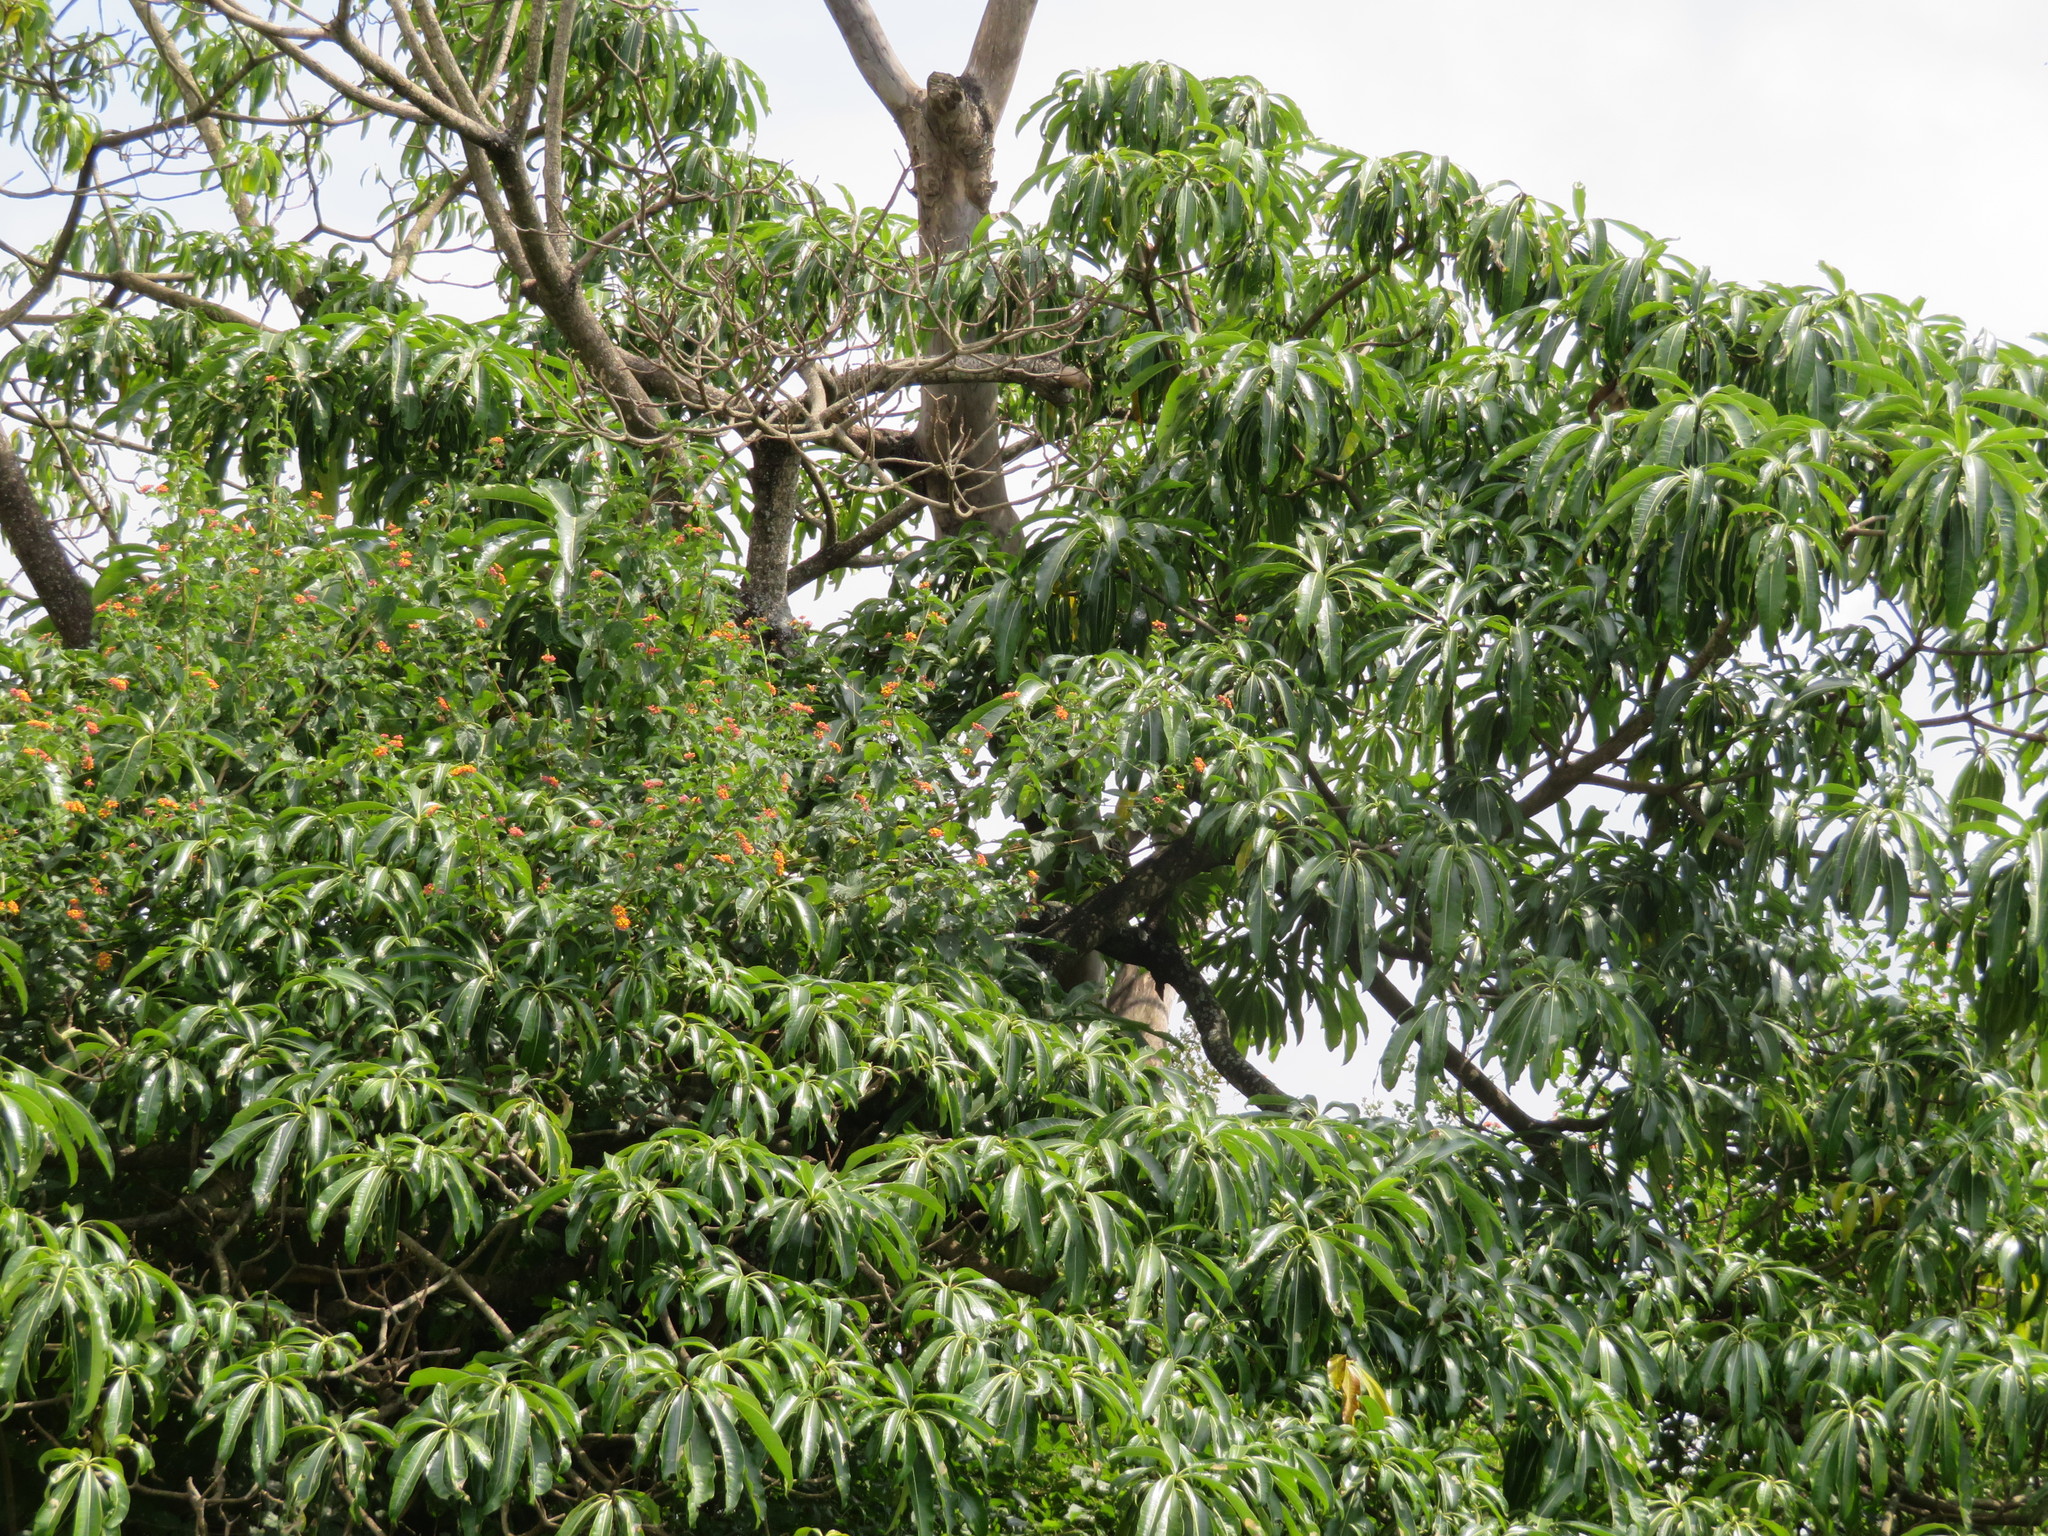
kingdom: Plantae
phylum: Tracheophyta
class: Magnoliopsida
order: Gentianales
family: Apocynaceae
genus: Rauvolfia
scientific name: Rauvolfia caffra
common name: Quininetree
